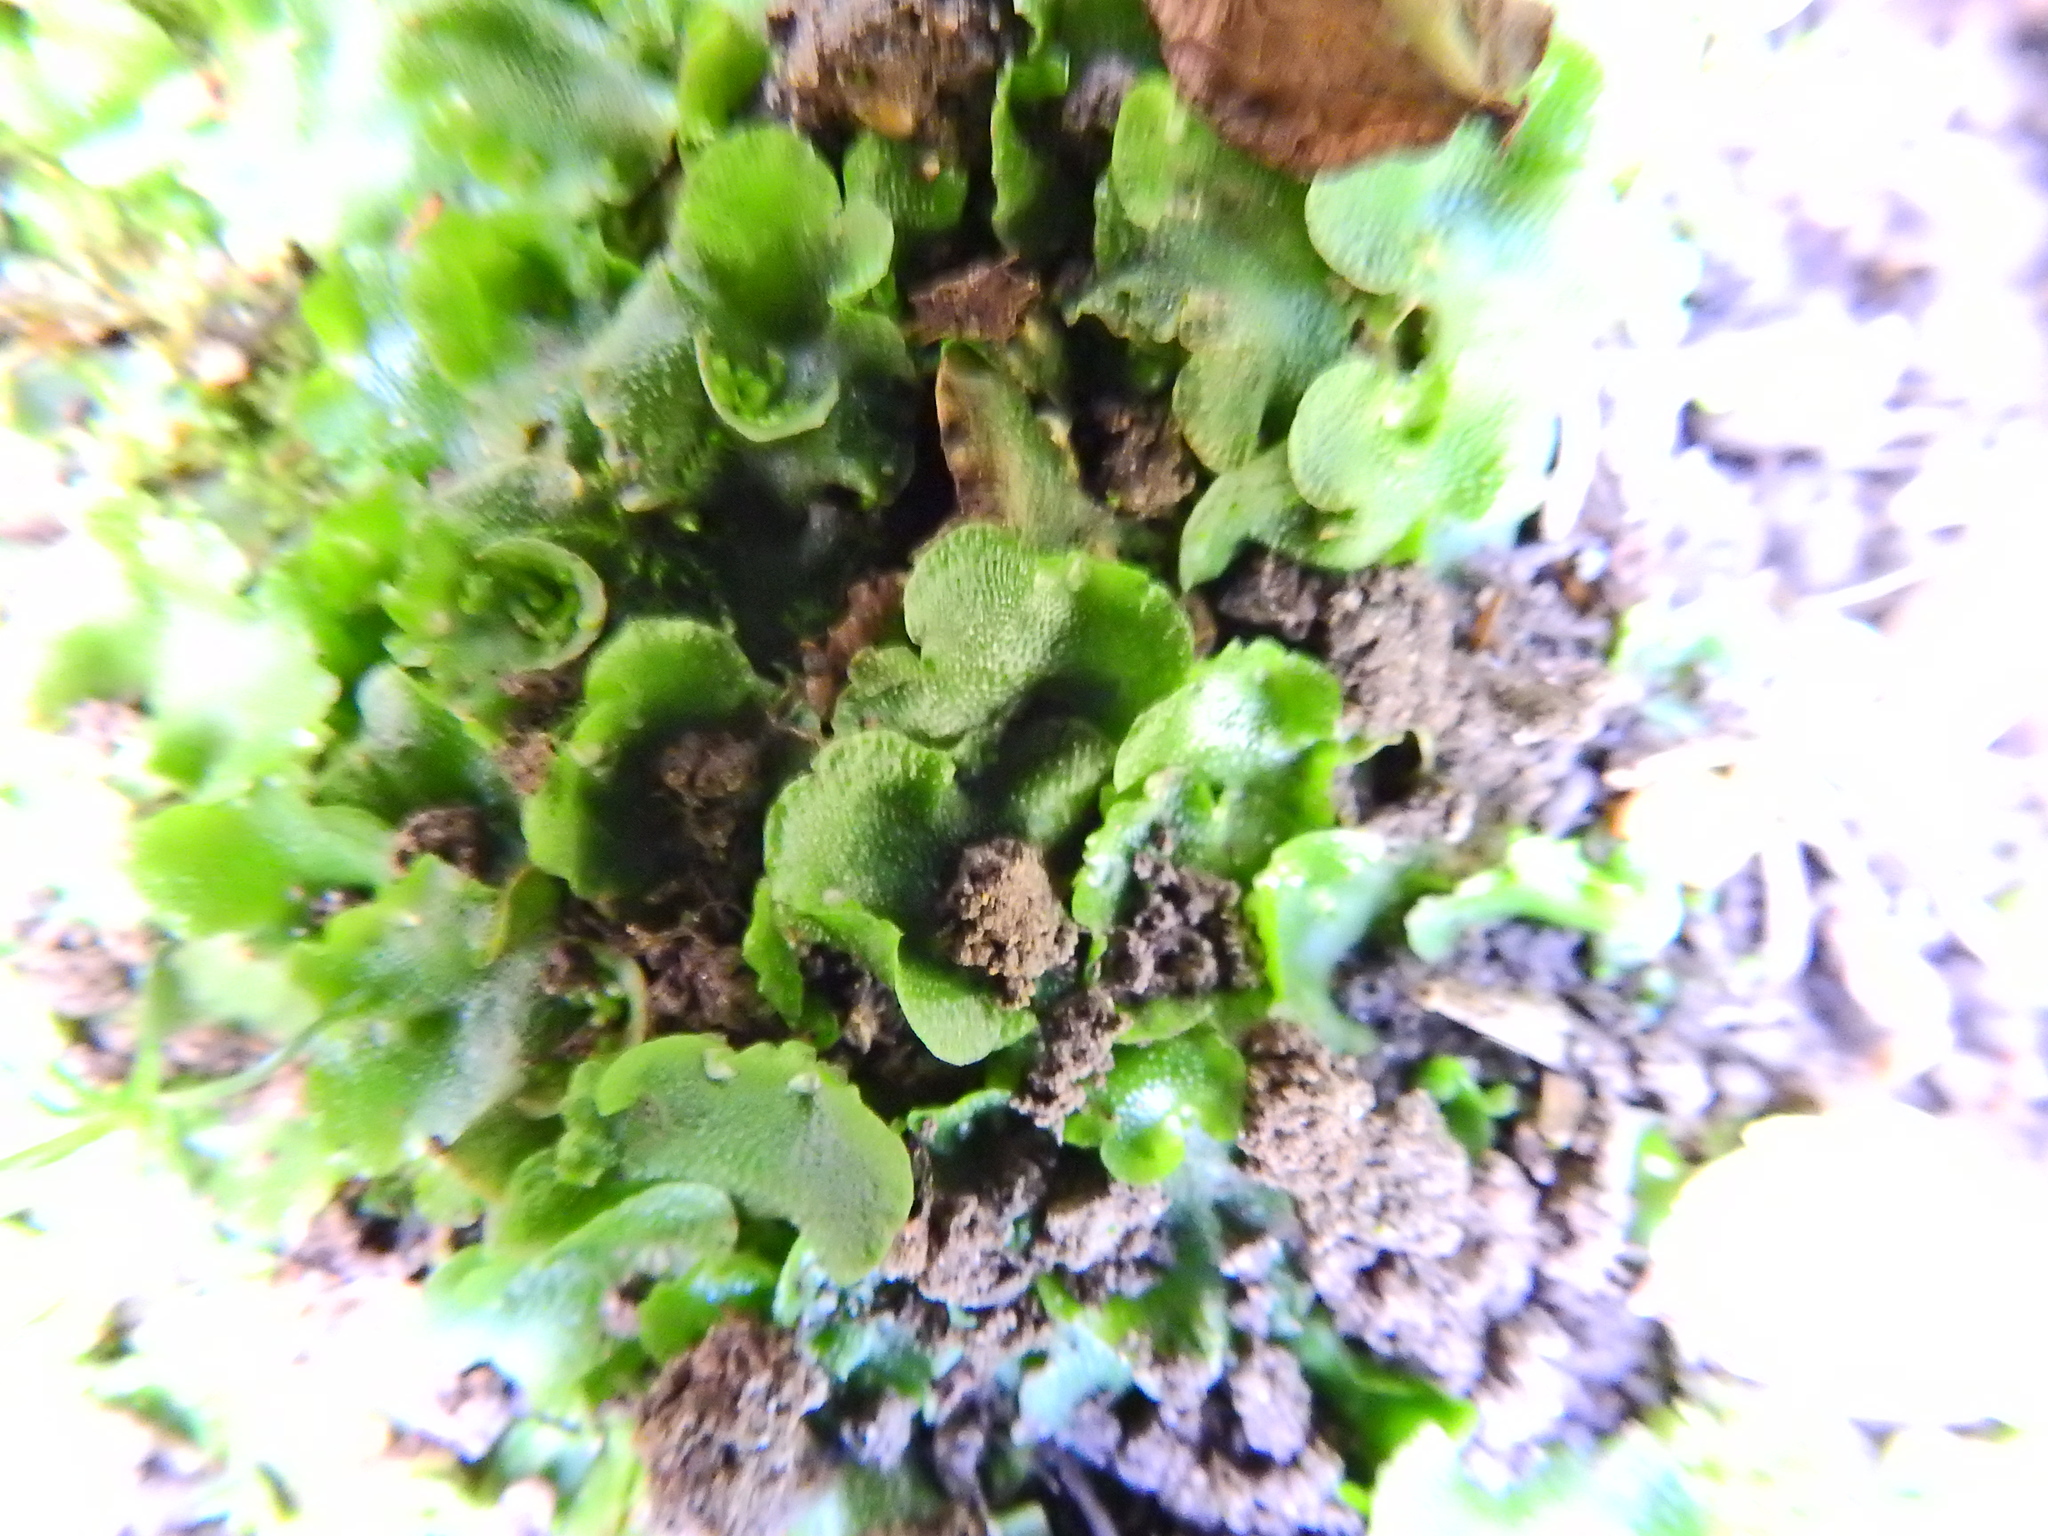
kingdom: Plantae
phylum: Marchantiophyta
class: Marchantiopsida
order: Lunulariales
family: Lunulariaceae
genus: Lunularia
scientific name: Lunularia cruciata
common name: Crescent-cup liverwort
